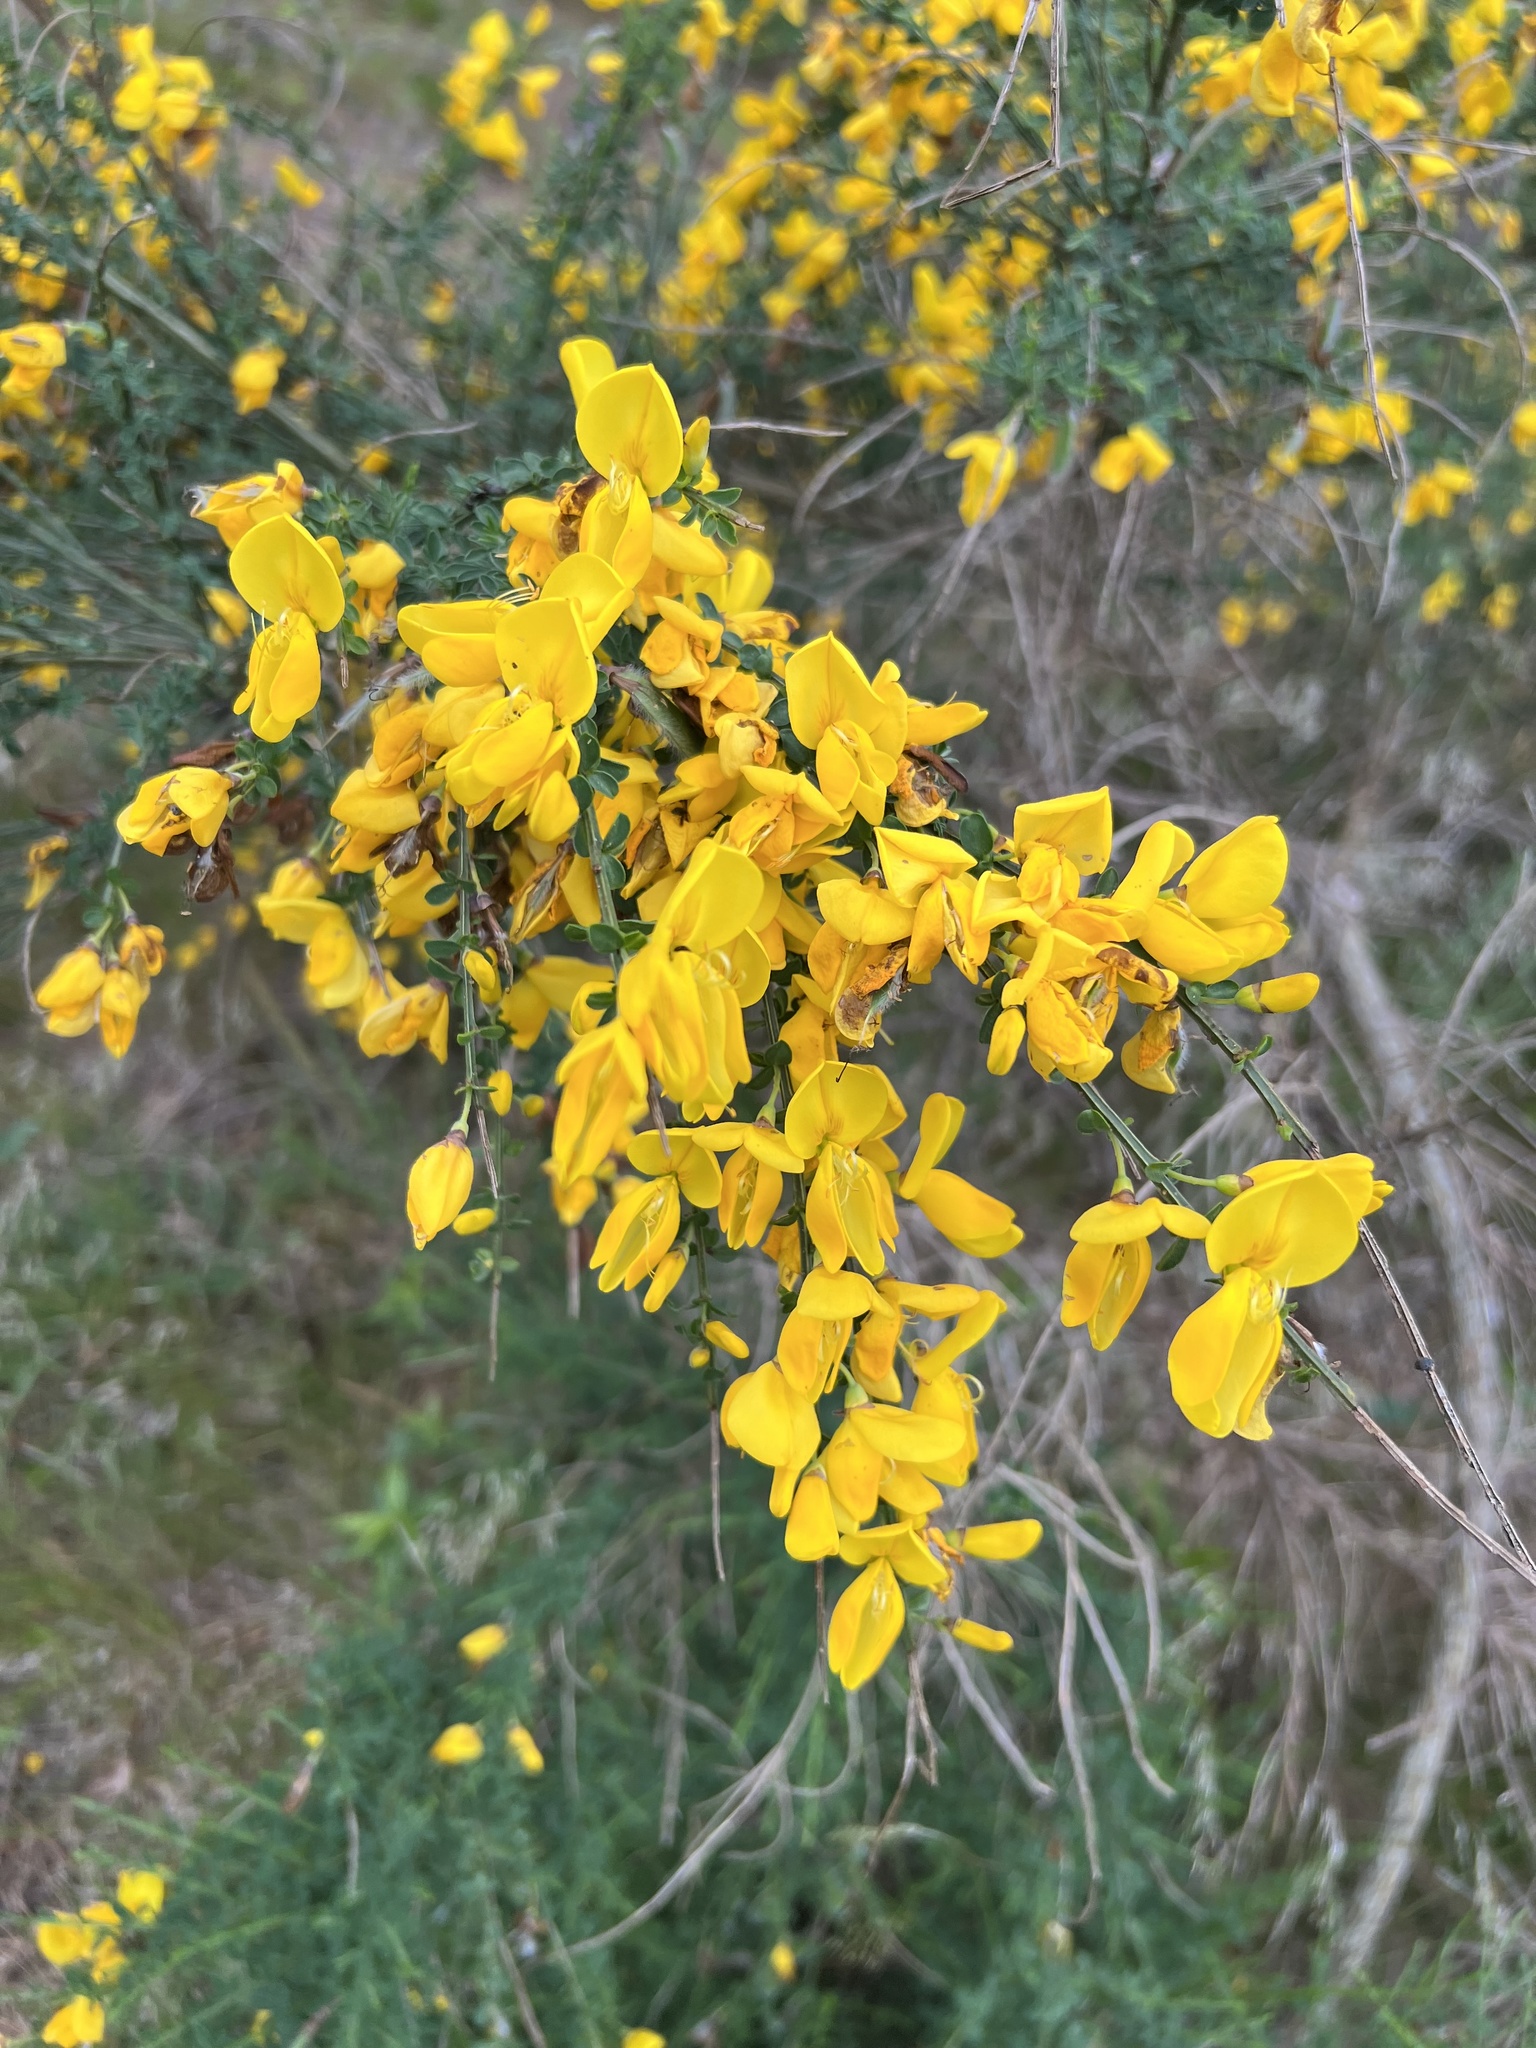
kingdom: Plantae
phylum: Tracheophyta
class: Magnoliopsida
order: Fabales
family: Fabaceae
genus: Cytisus
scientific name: Cytisus scoparius
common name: Scotch broom
